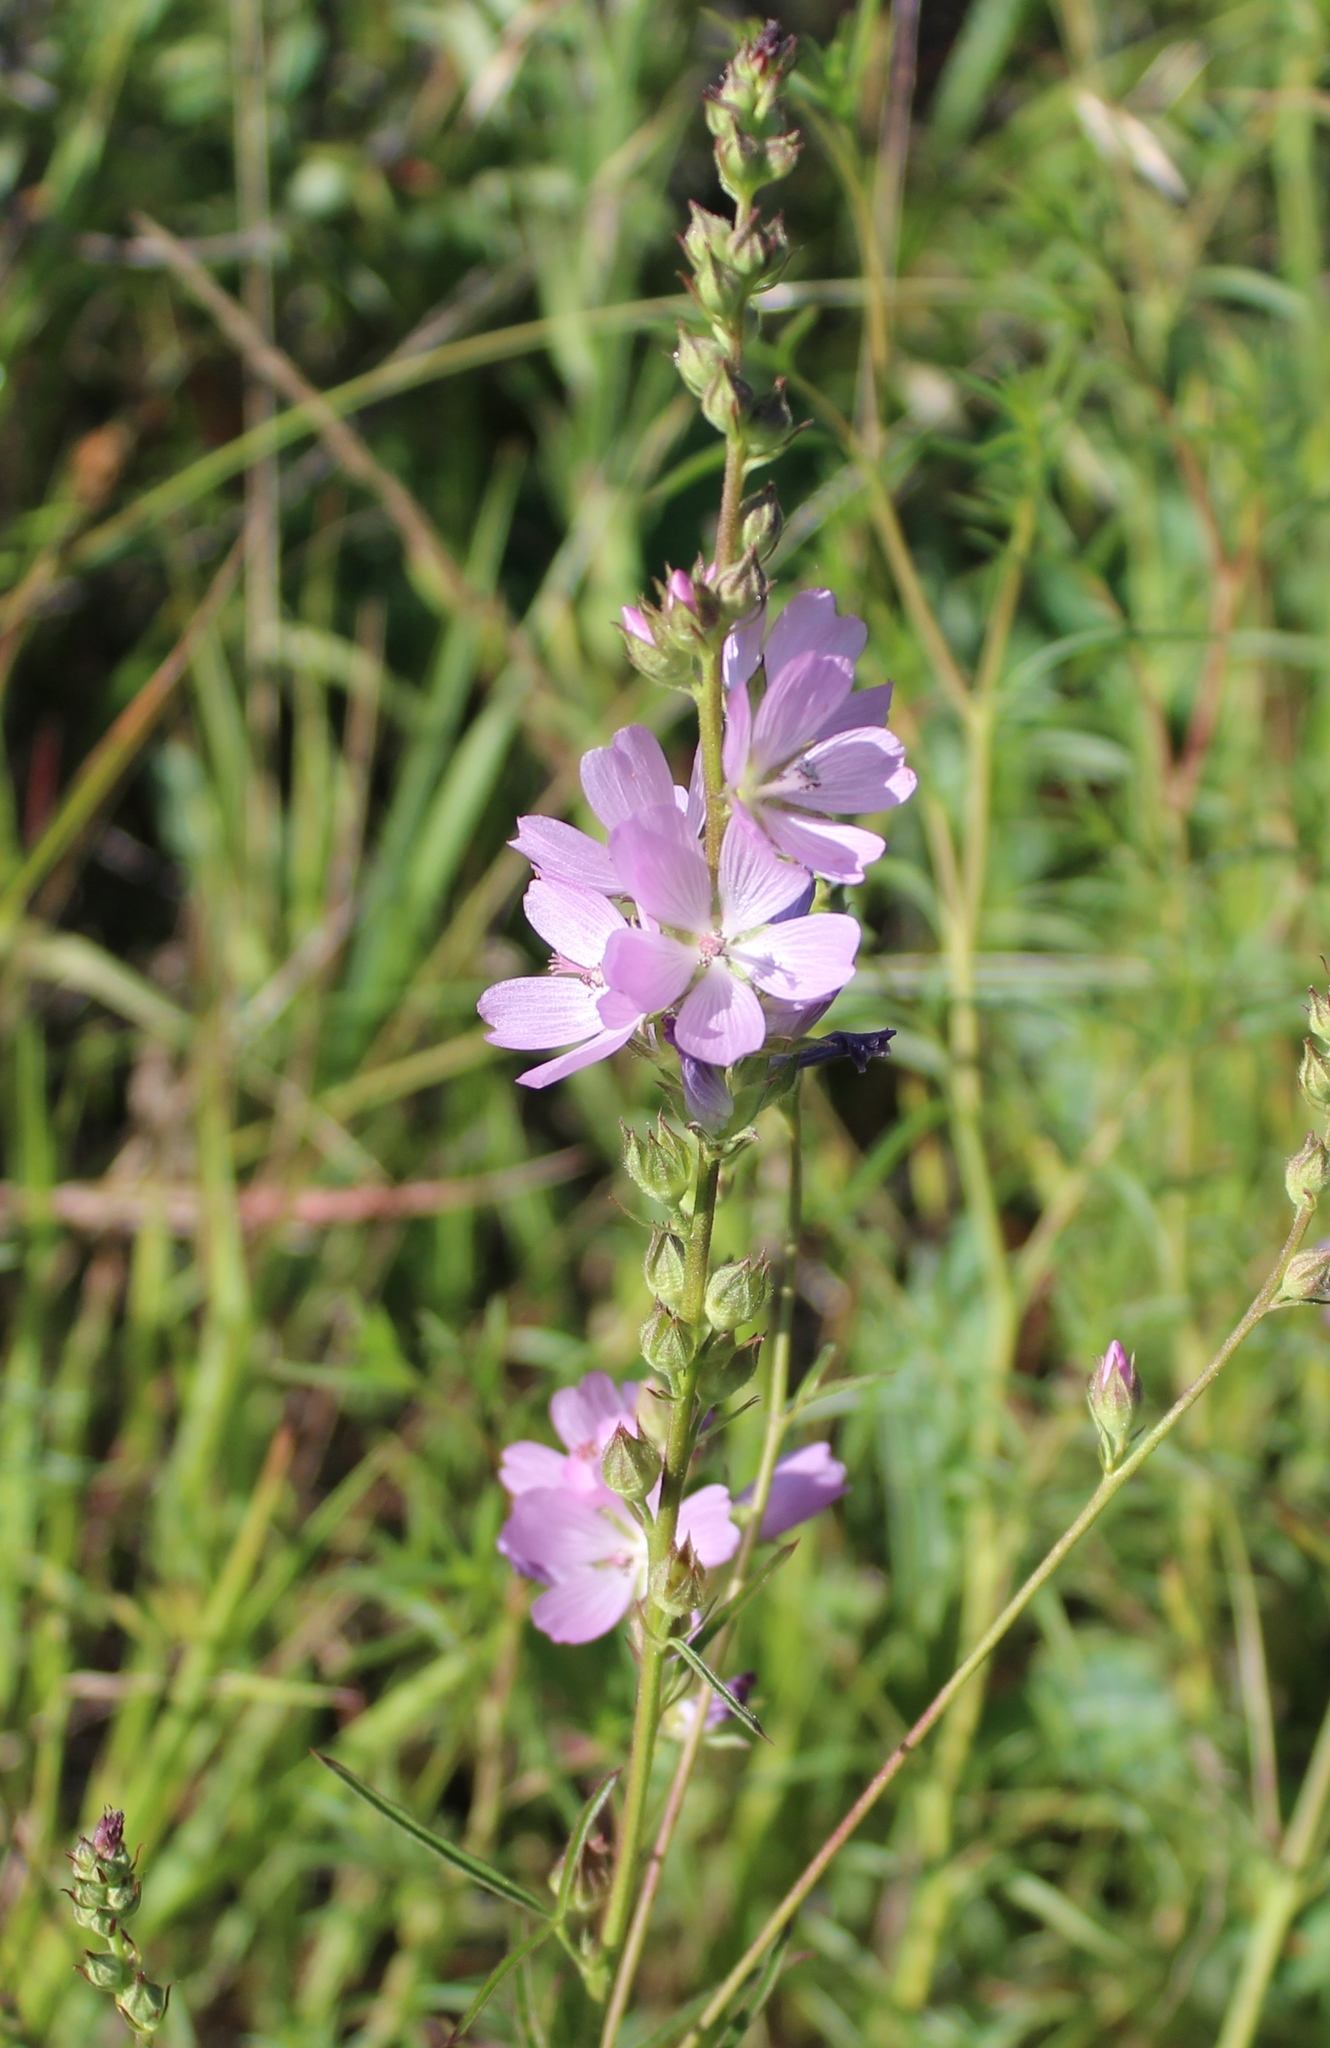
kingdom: Plantae
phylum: Tracheophyta
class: Magnoliopsida
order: Malvales
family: Malvaceae
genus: Sidalcea
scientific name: Sidalcea oregana
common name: Oregon checker-mallow
